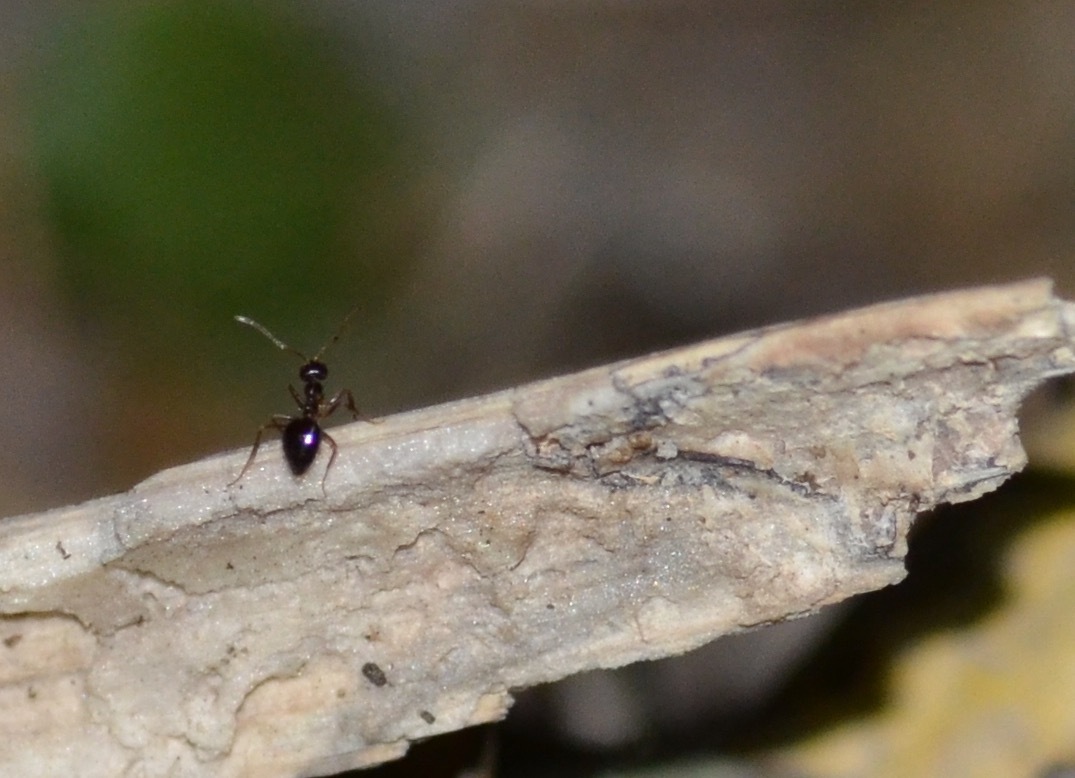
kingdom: Animalia
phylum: Arthropoda
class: Insecta
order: Hymenoptera
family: Formicidae
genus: Prenolepis
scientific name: Prenolepis imparis
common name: Small honey ant
